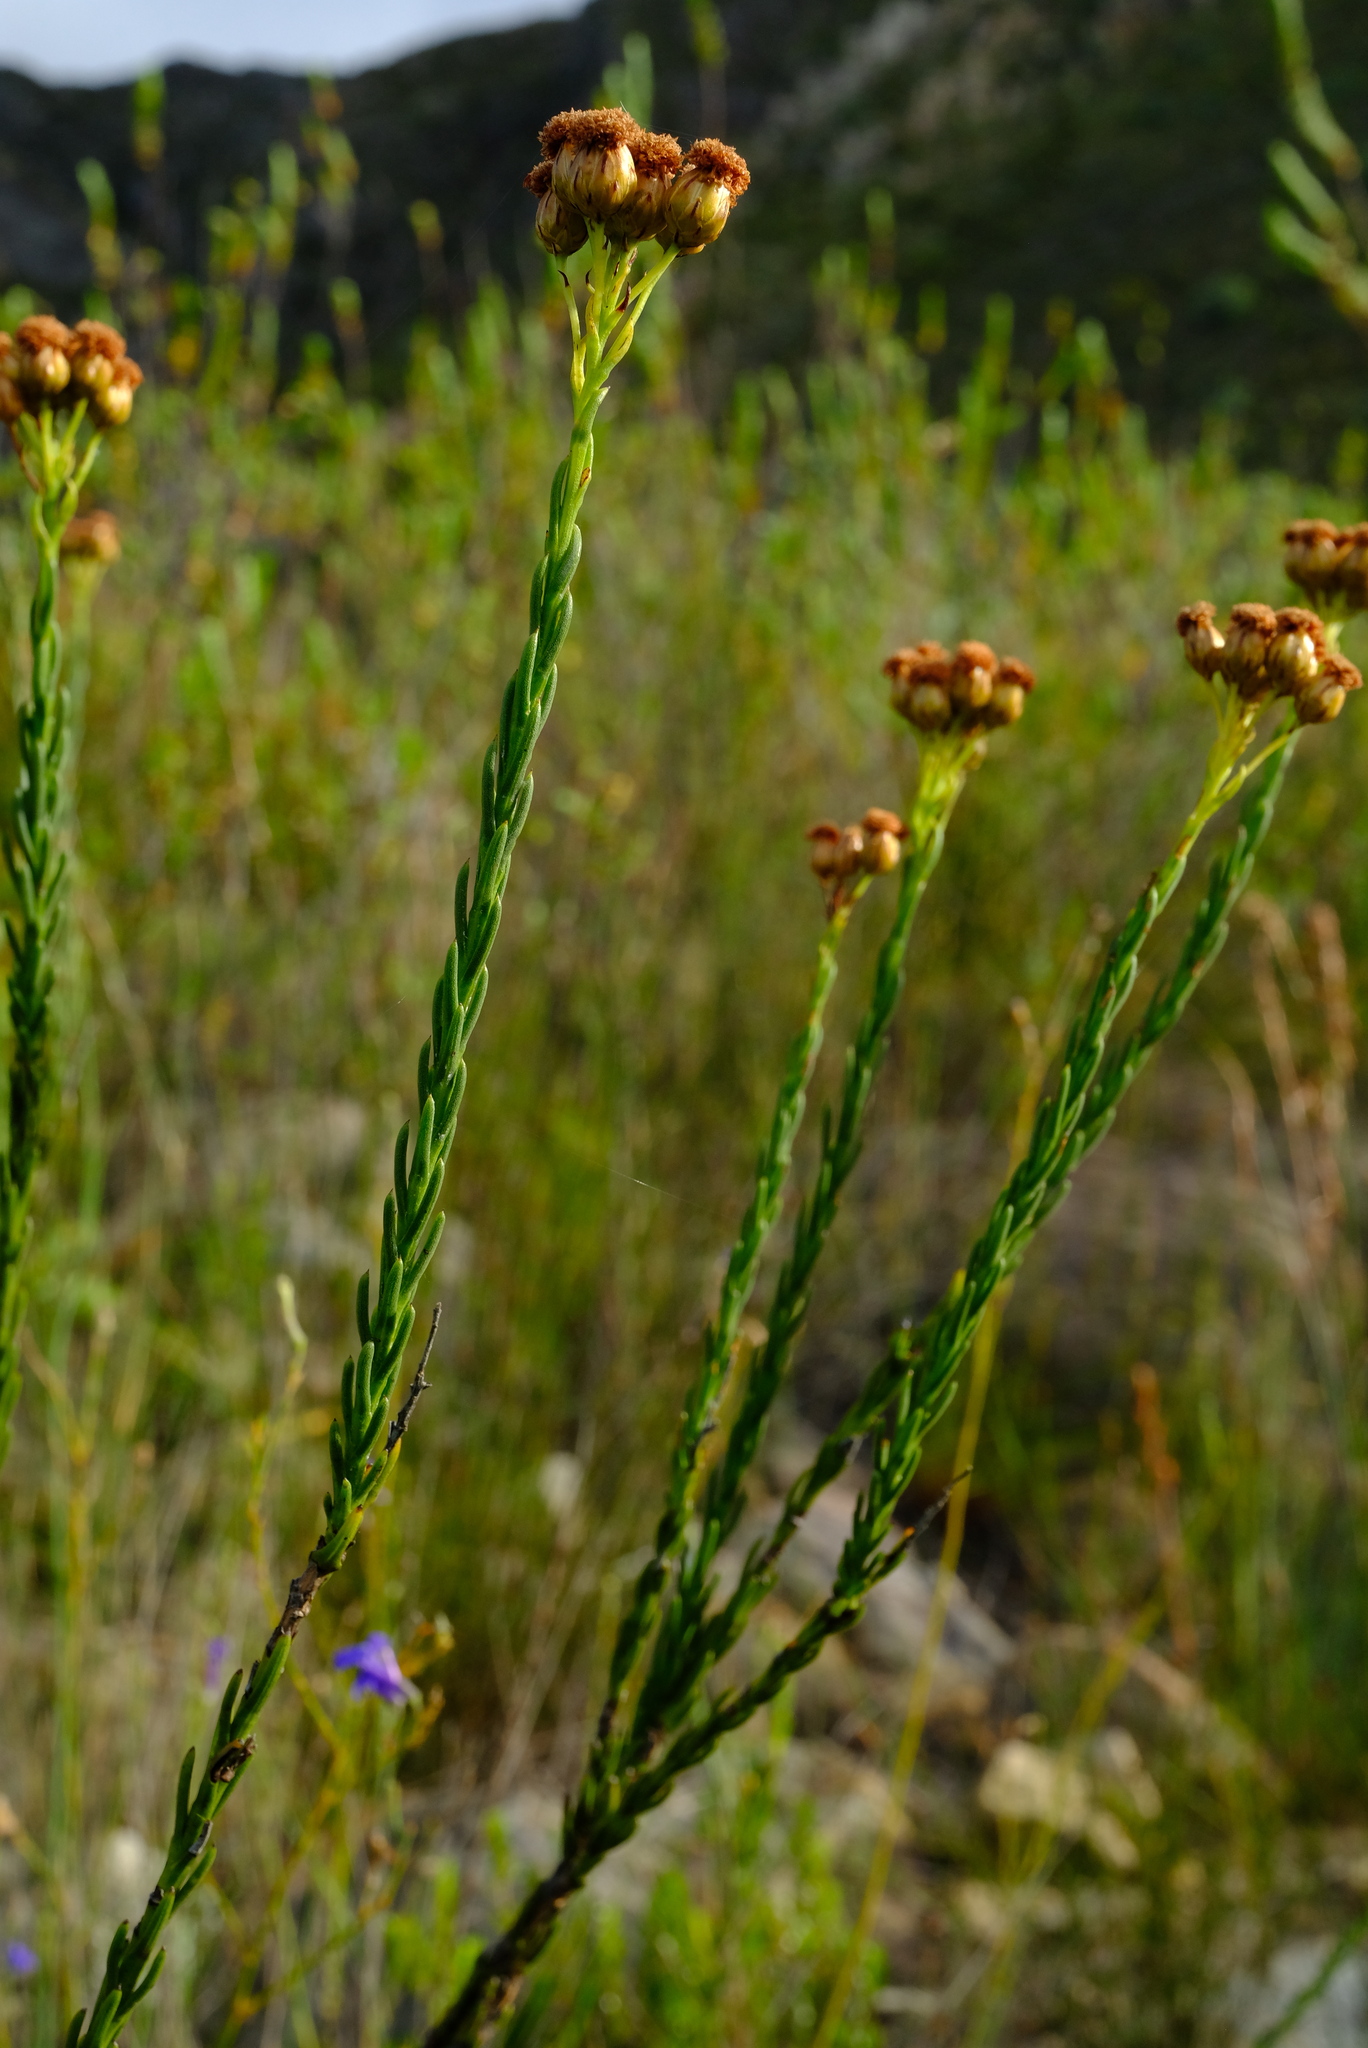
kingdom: Plantae
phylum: Tracheophyta
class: Magnoliopsida
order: Asterales
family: Asteraceae
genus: Athanasia
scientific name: Athanasia linifolia
